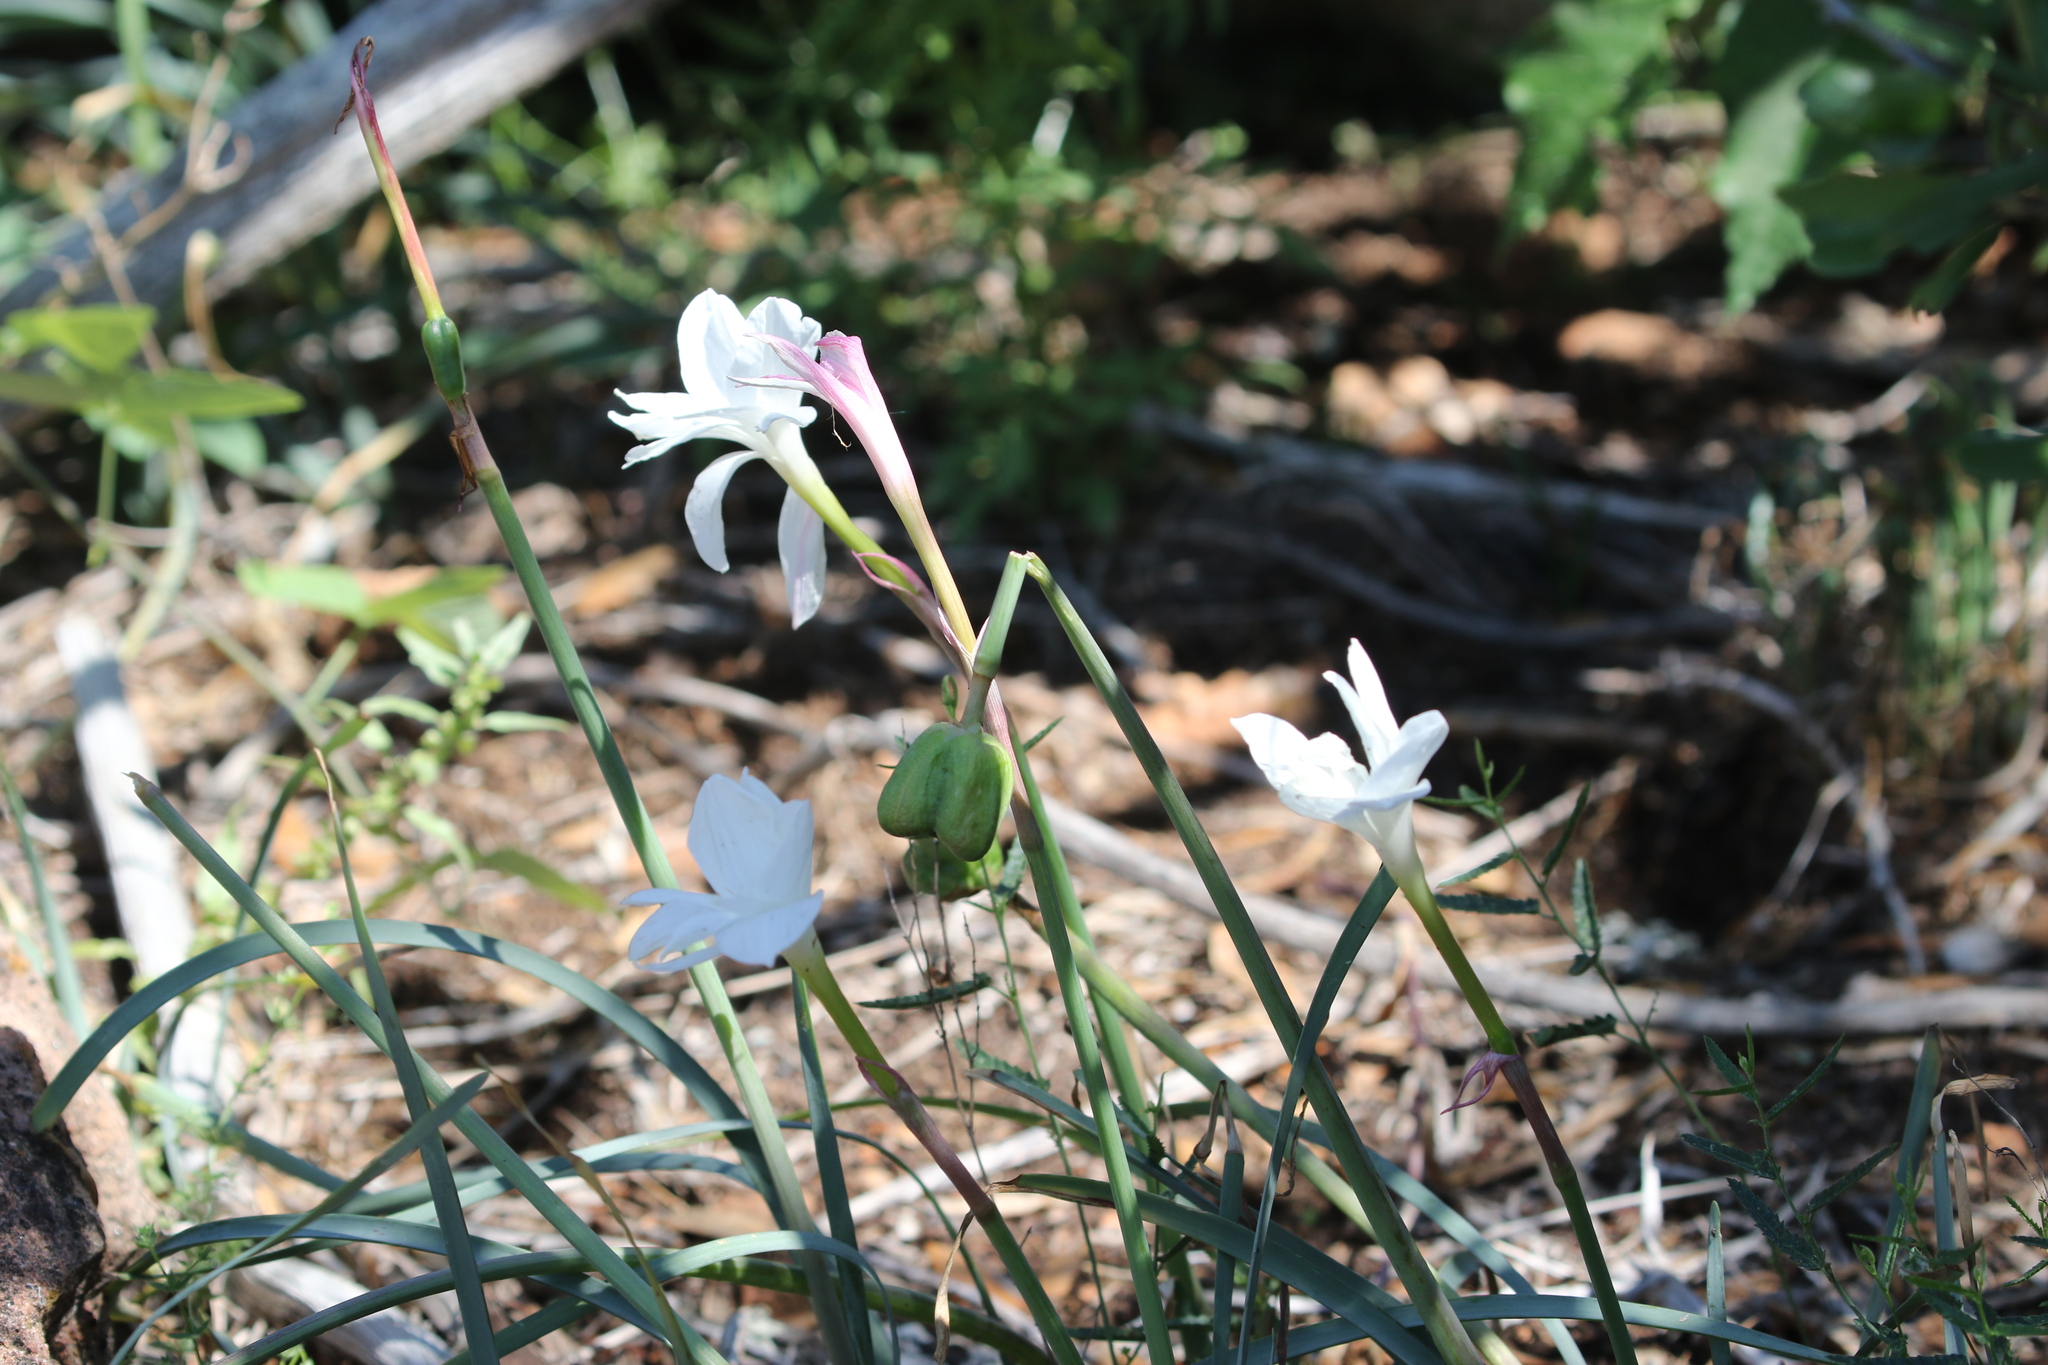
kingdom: Plantae
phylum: Tracheophyta
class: Liliopsida
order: Asparagales
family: Amaryllidaceae
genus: Zephyranthes
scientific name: Zephyranthes drummondii
